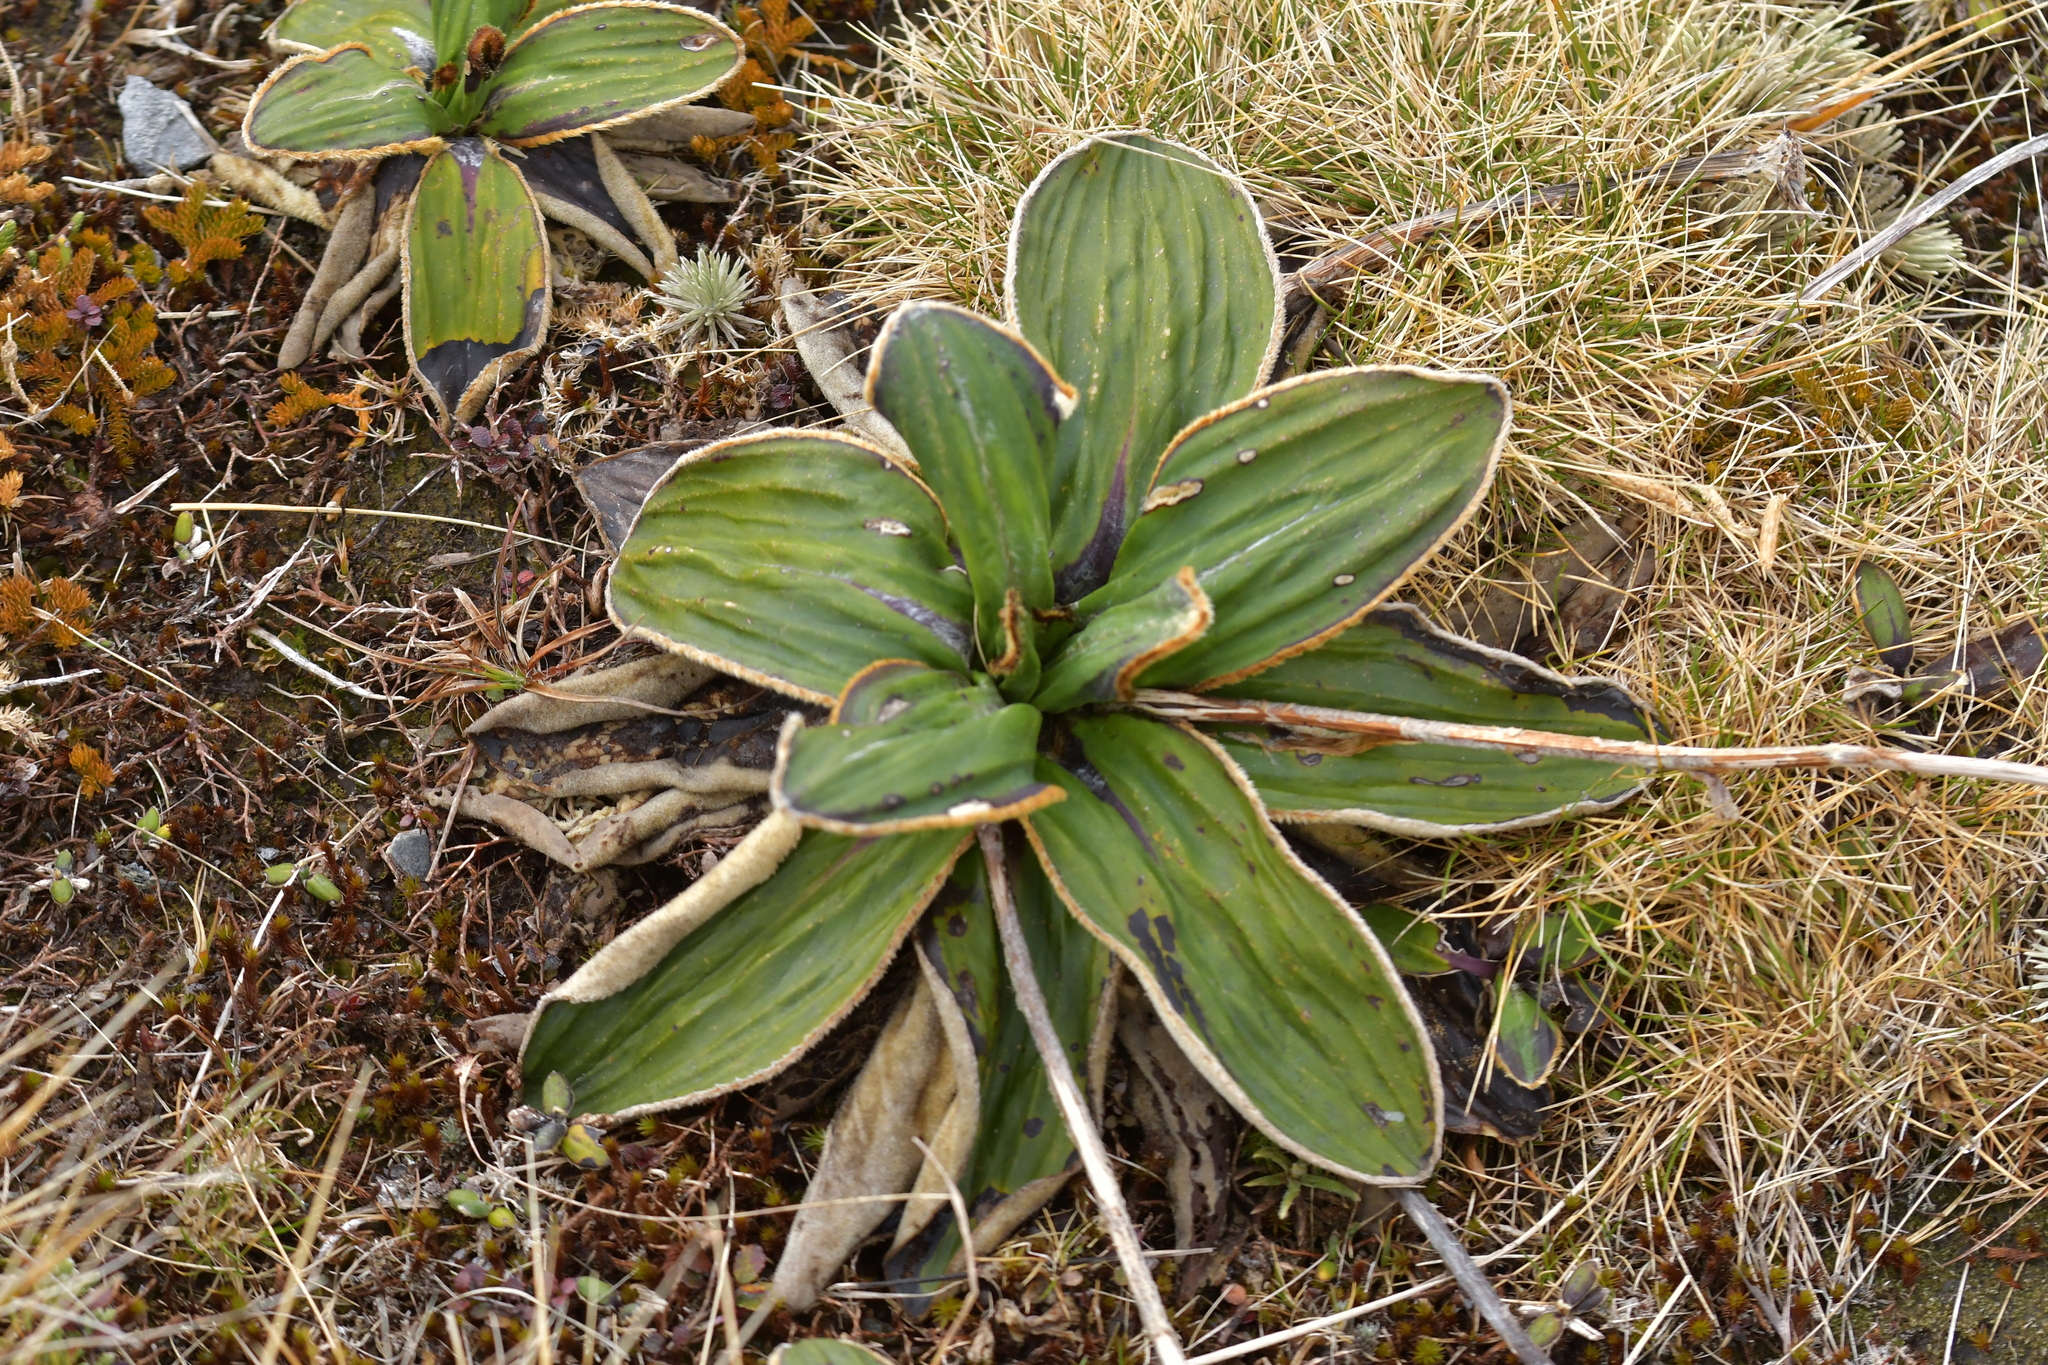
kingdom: Plantae
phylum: Tracheophyta
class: Magnoliopsida
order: Asterales
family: Asteraceae
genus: Celmisia
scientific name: Celmisia traversii
